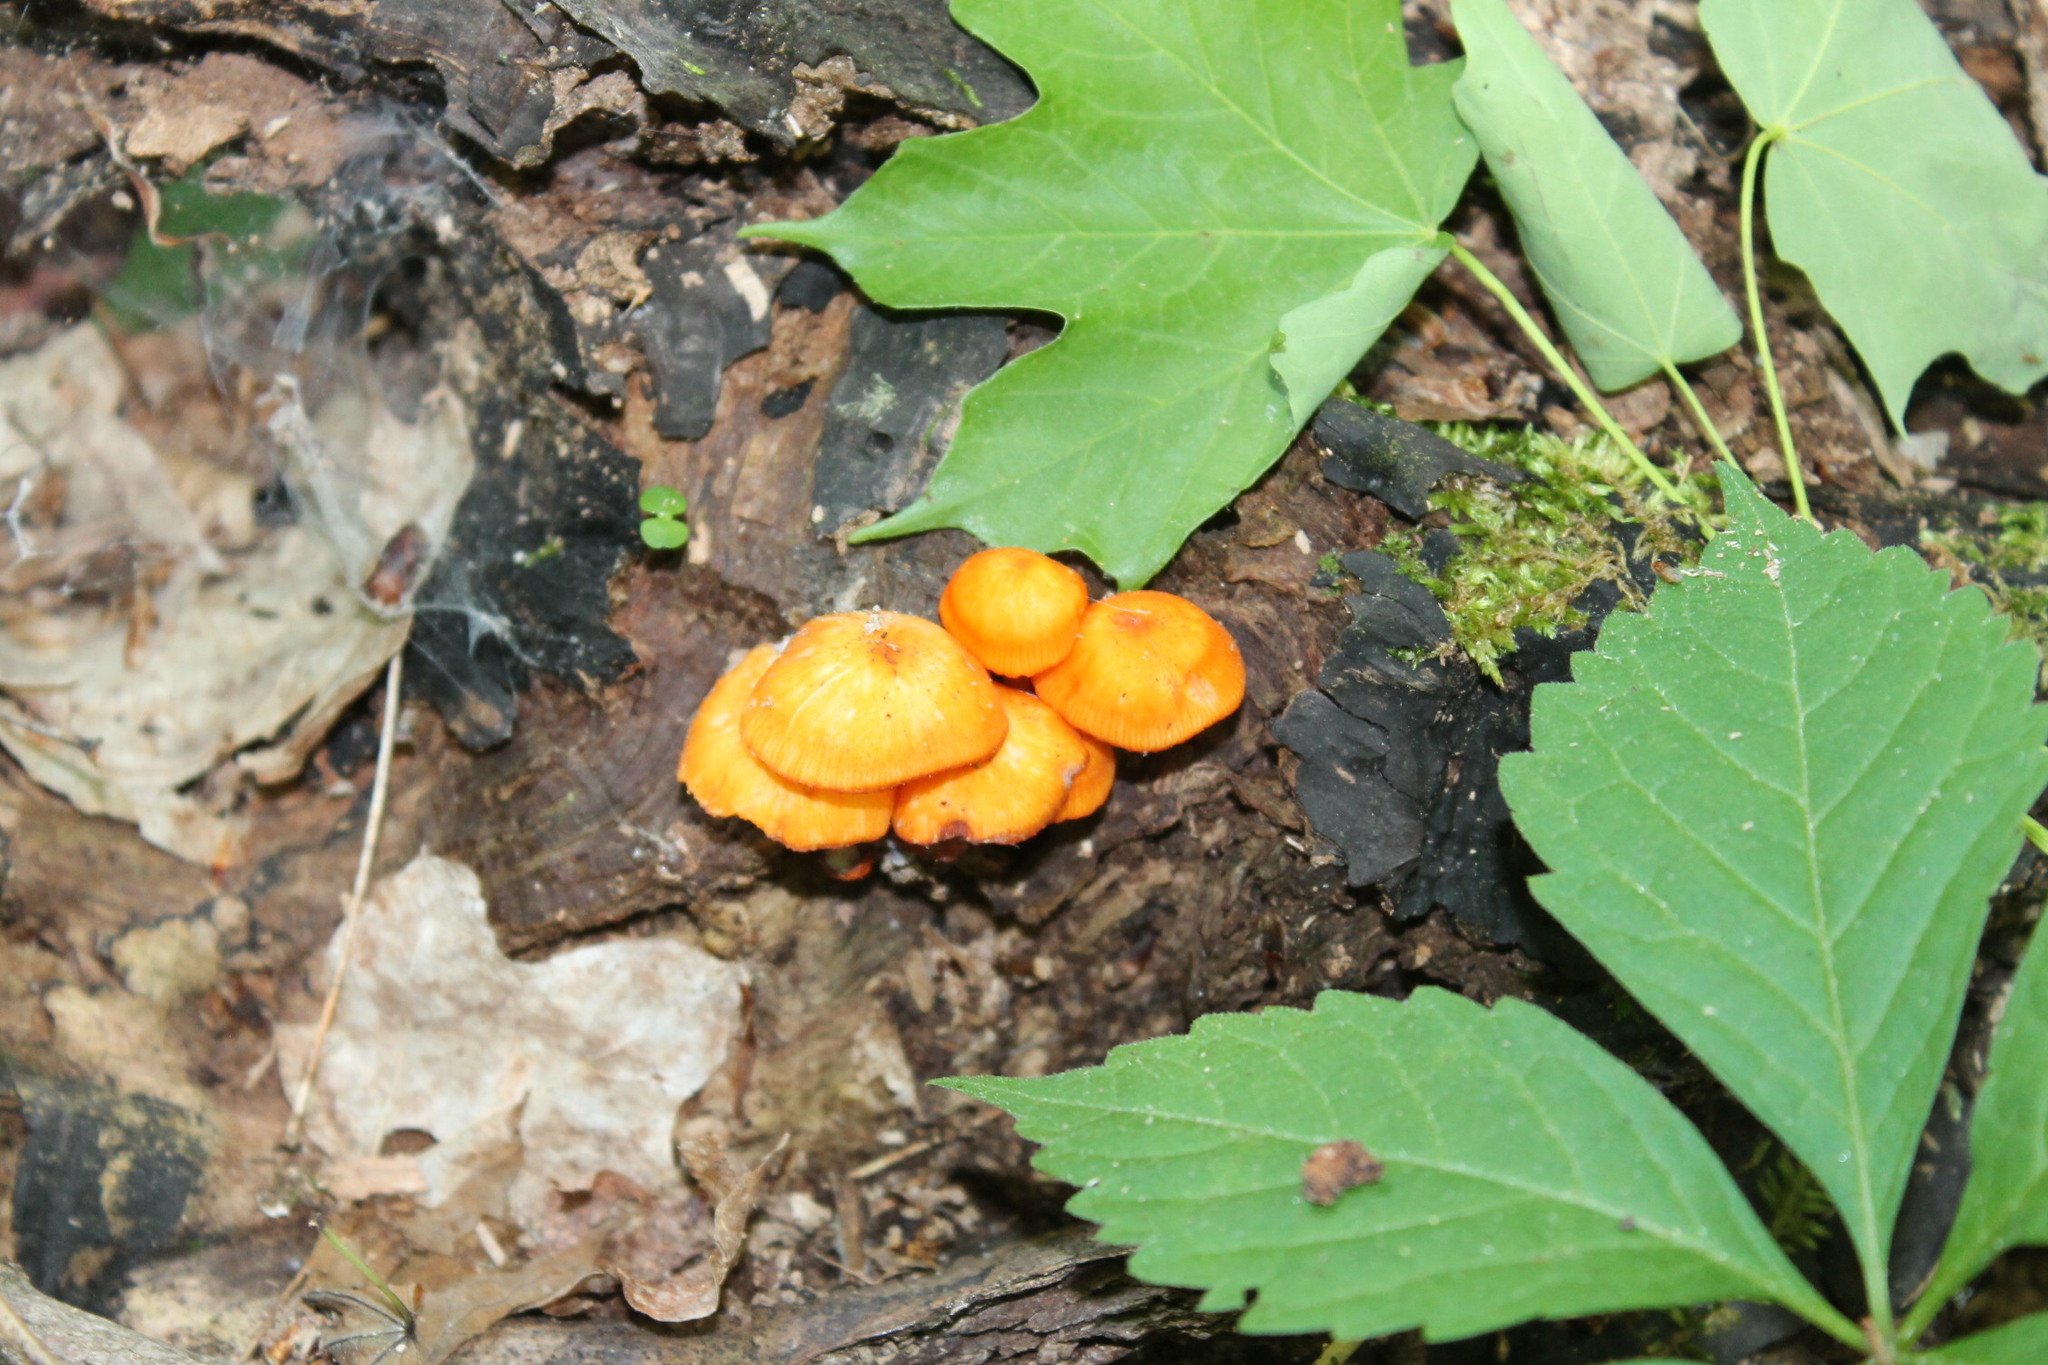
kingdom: Fungi
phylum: Basidiomycota
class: Agaricomycetes
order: Agaricales
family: Mycenaceae
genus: Mycena
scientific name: Mycena leaiana
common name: Orange mycena
